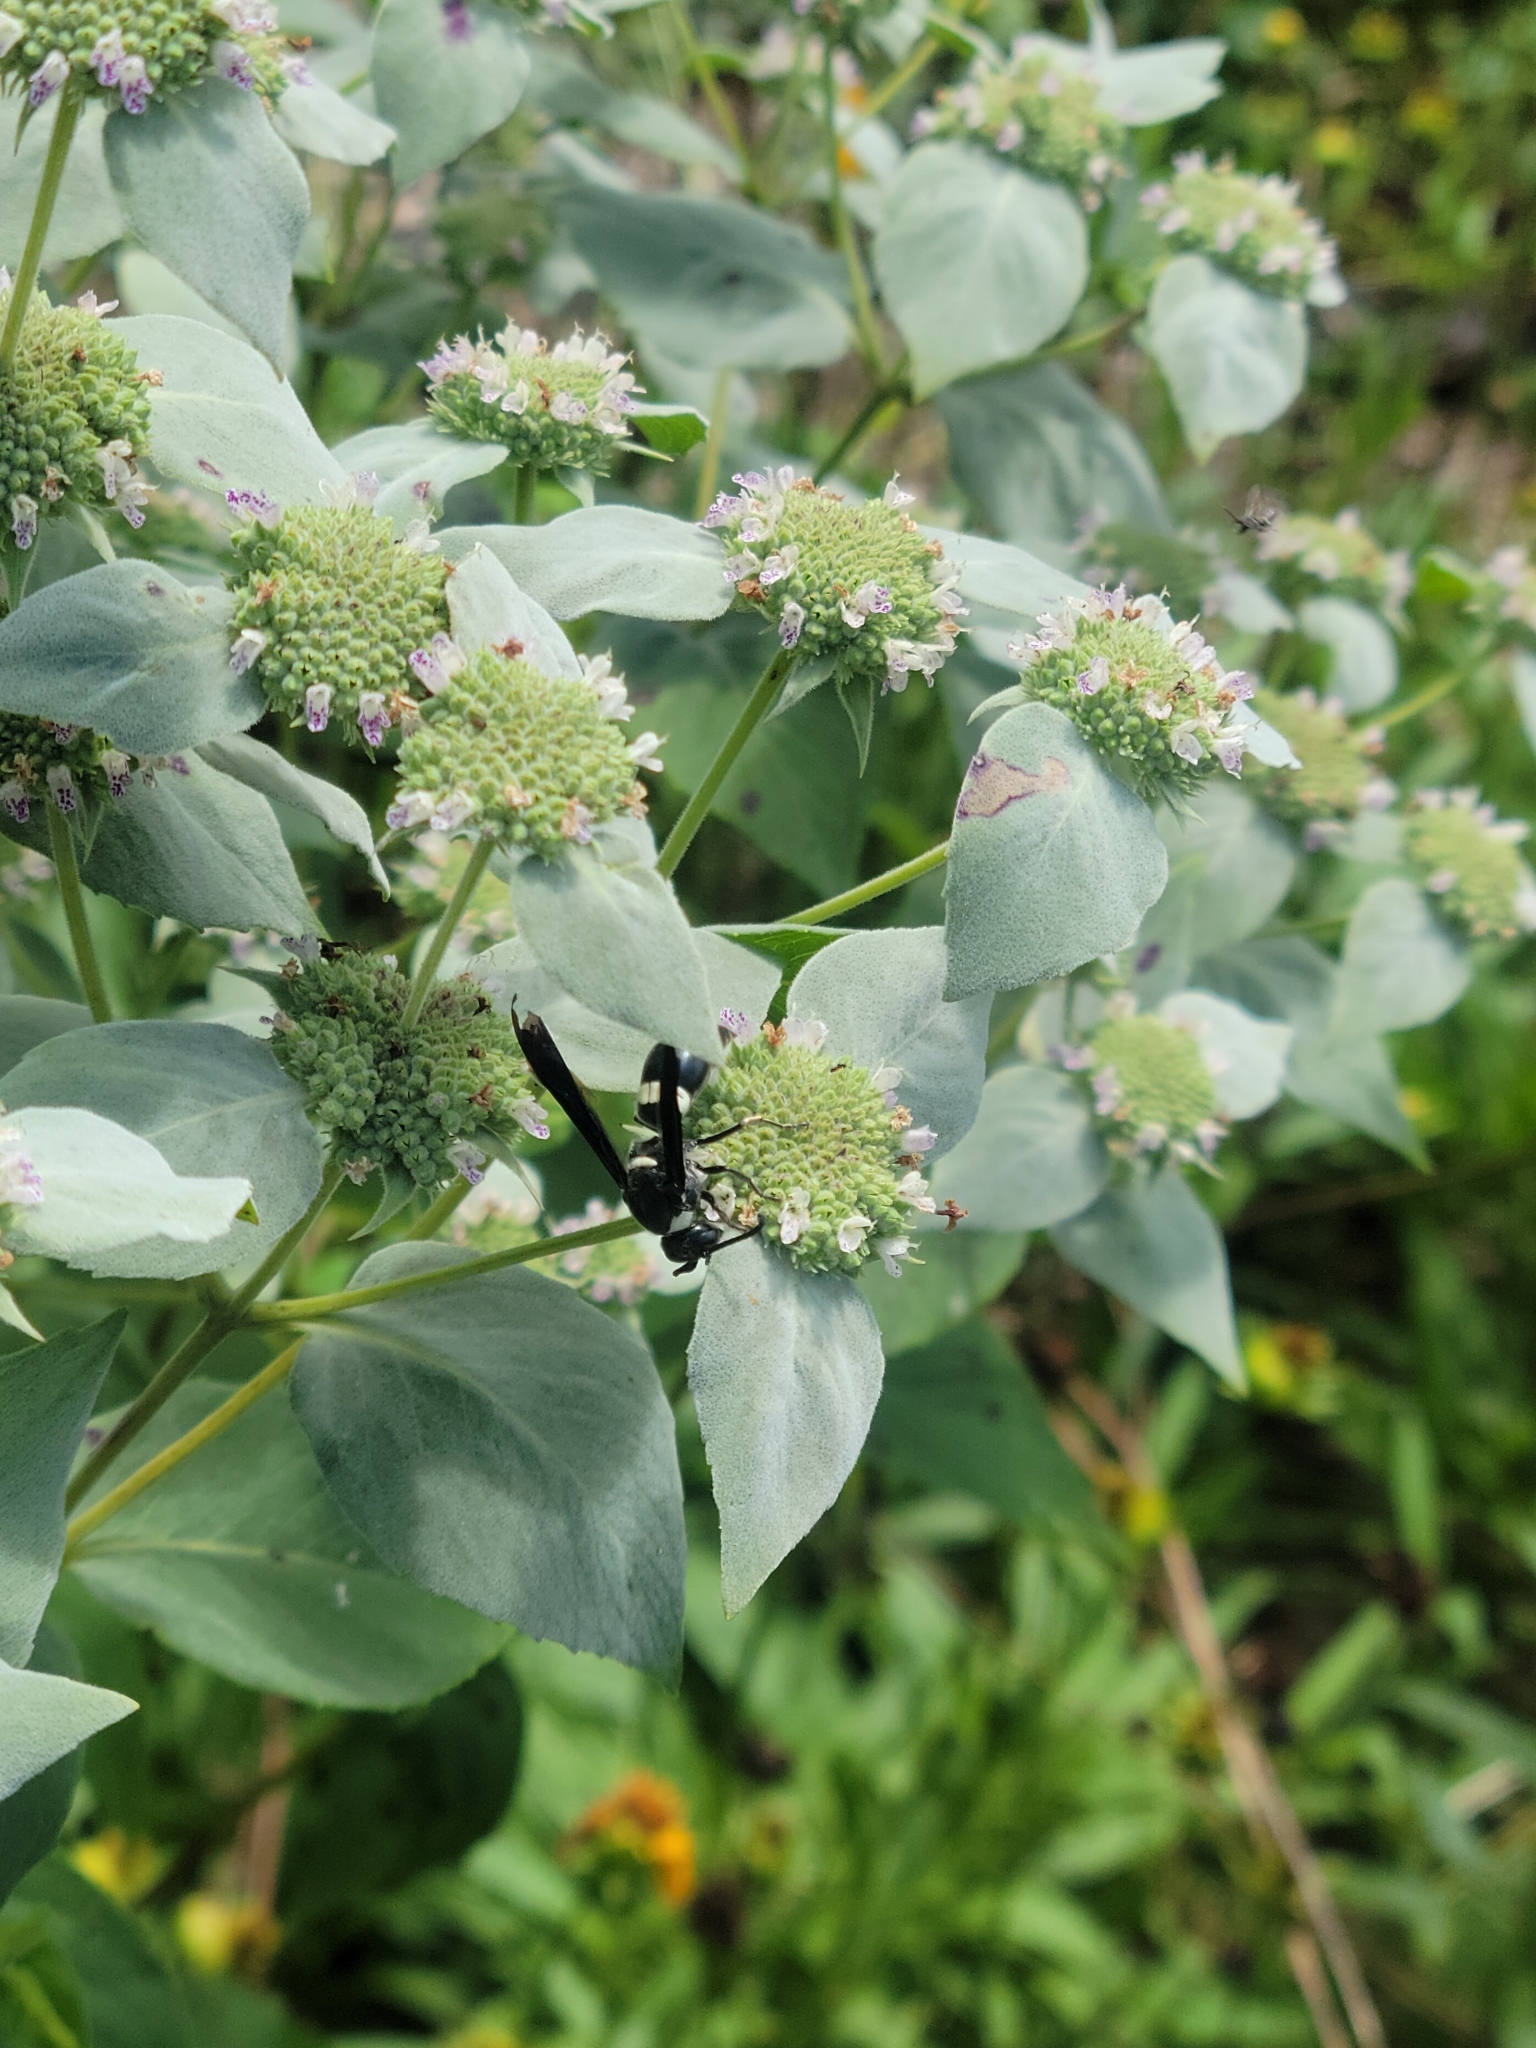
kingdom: Animalia
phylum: Arthropoda
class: Insecta
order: Hymenoptera
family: Eumenidae
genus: Monobia
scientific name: Monobia quadridens
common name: Four-toothed mason wasp
